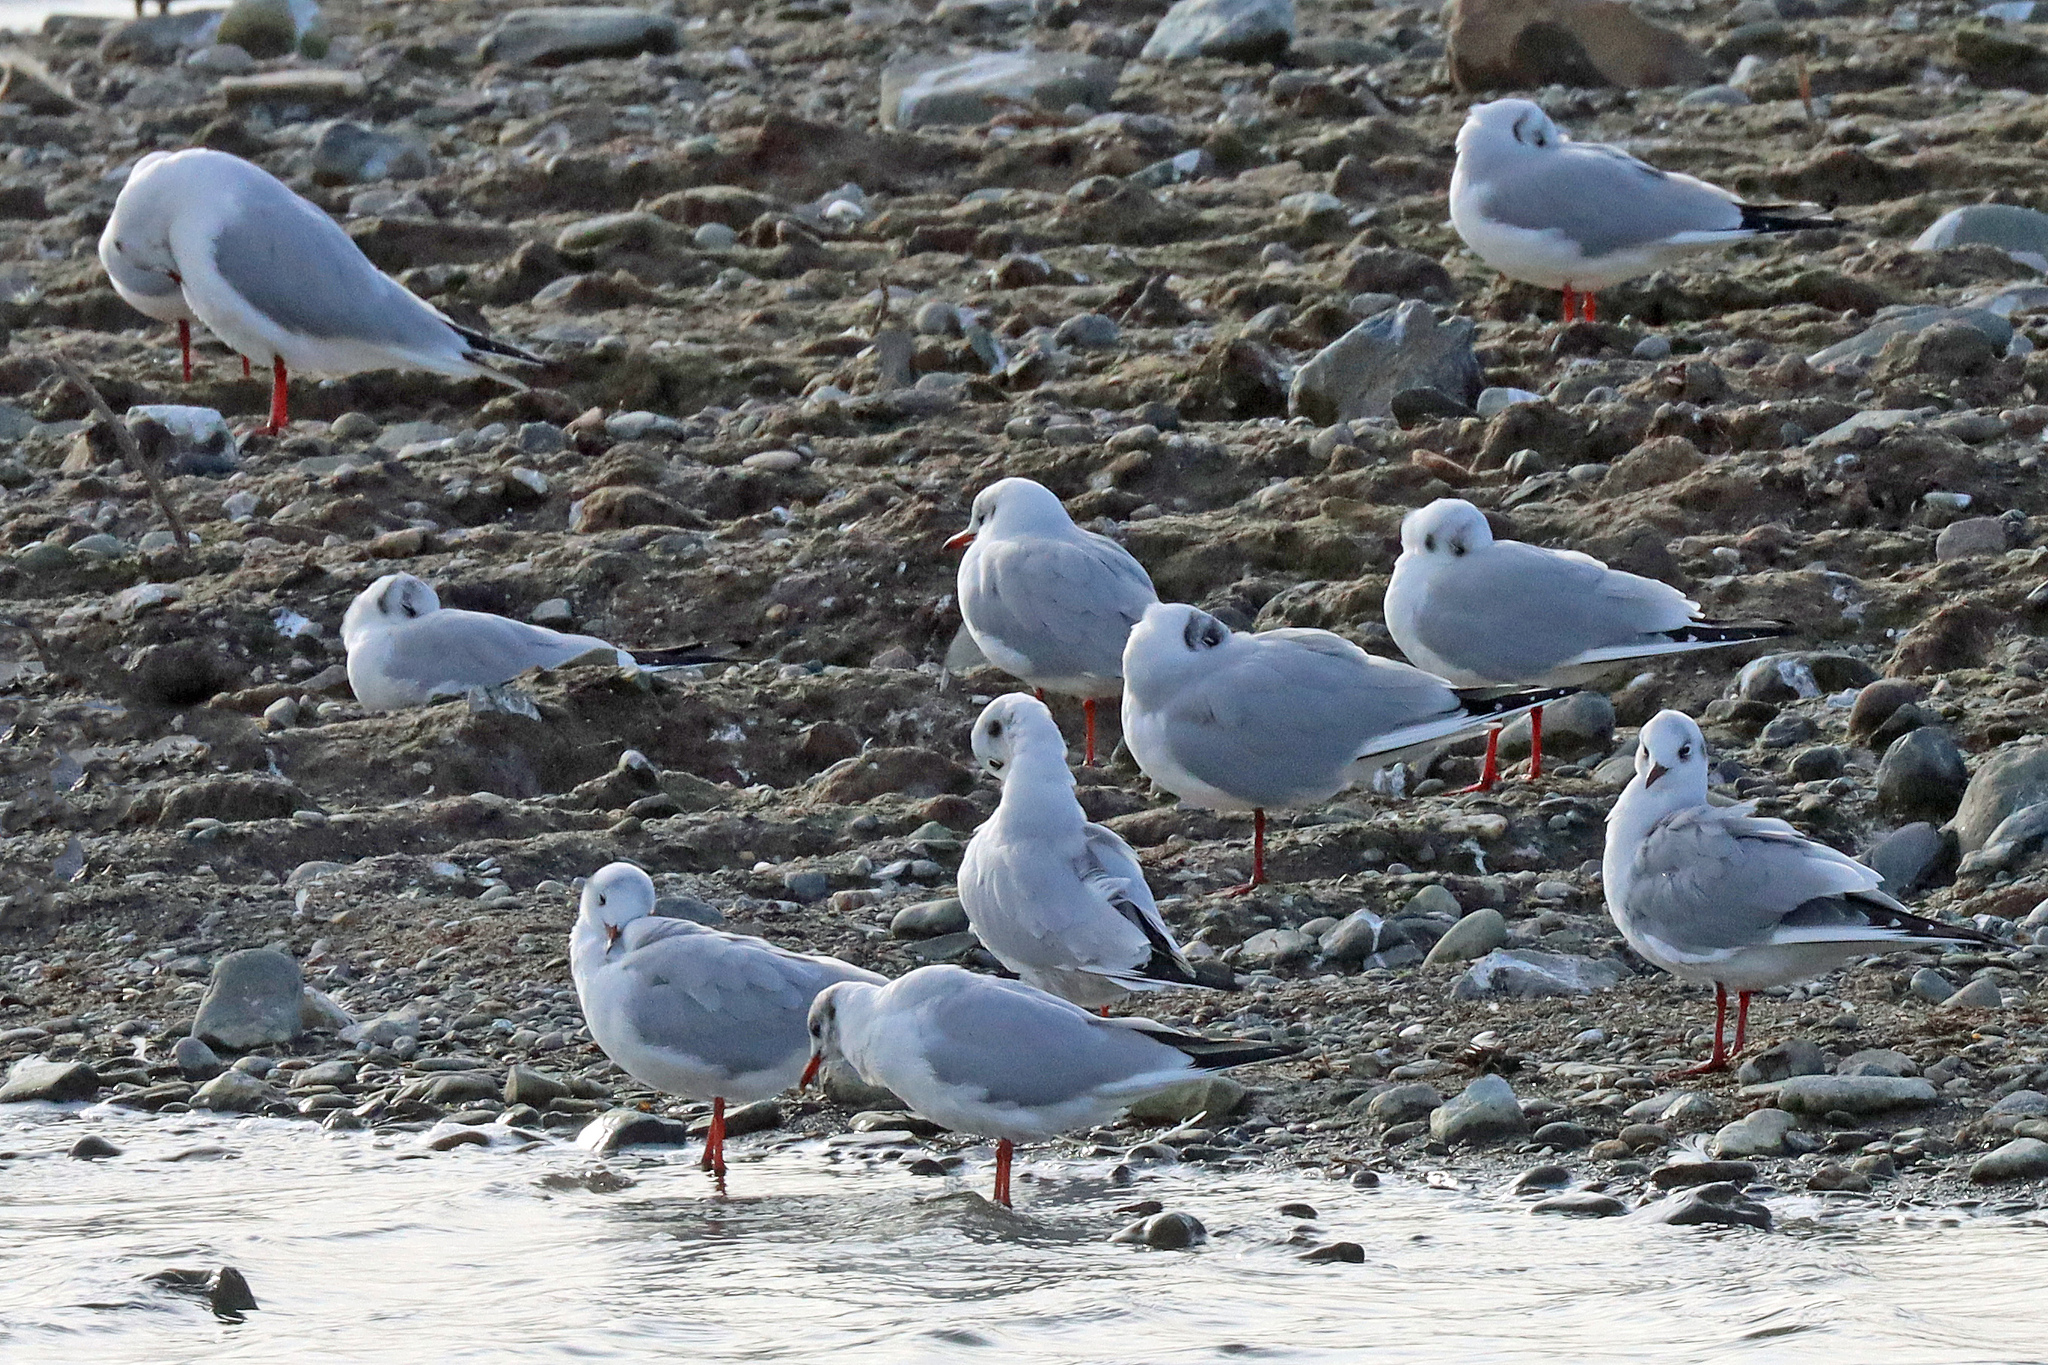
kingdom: Animalia
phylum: Chordata
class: Aves
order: Charadriiformes
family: Laridae
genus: Chroicocephalus
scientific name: Chroicocephalus ridibundus
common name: Black-headed gull
